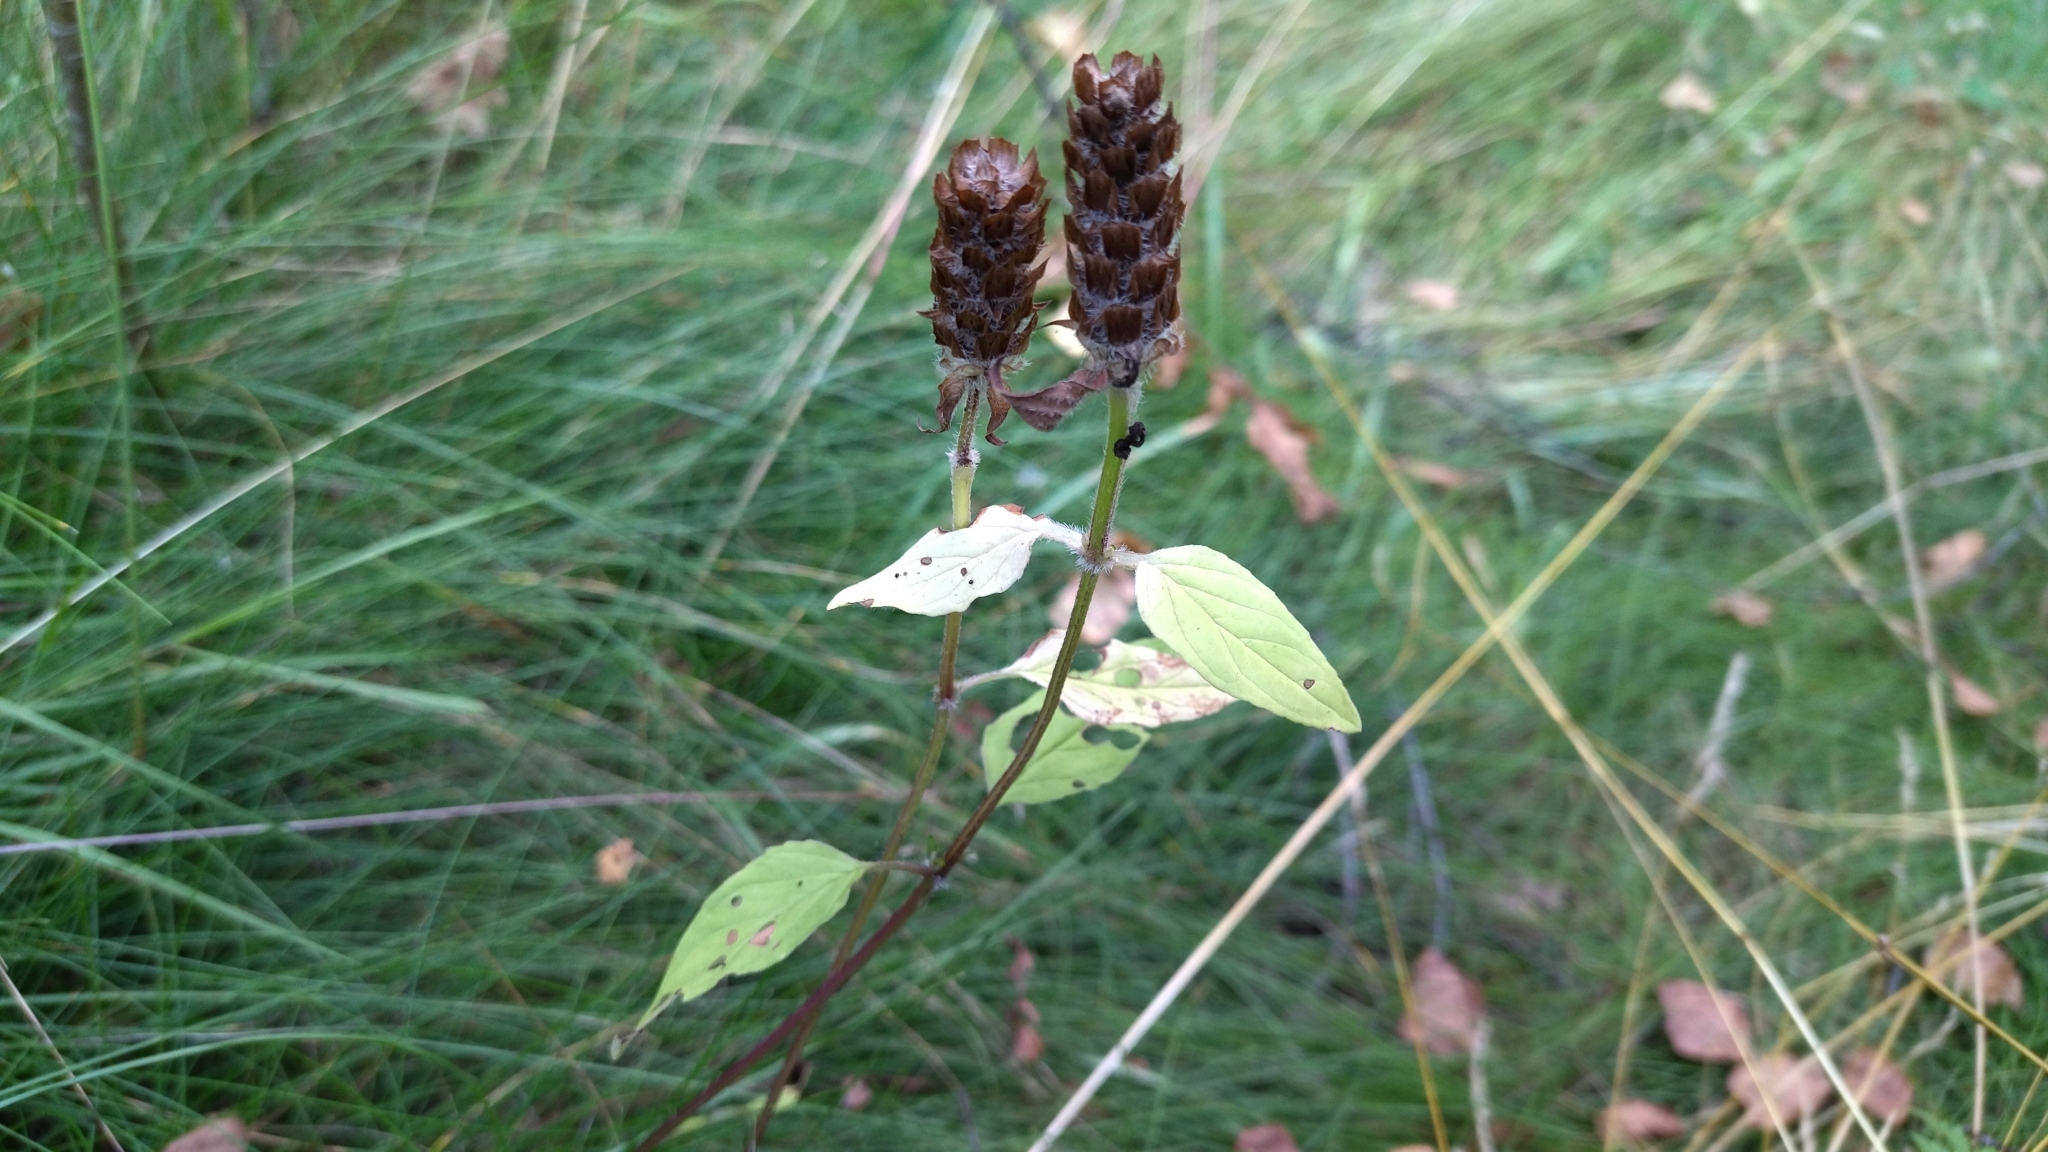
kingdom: Plantae
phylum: Tracheophyta
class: Magnoliopsida
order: Lamiales
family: Lamiaceae
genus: Prunella
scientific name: Prunella vulgaris
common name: Heal-all
